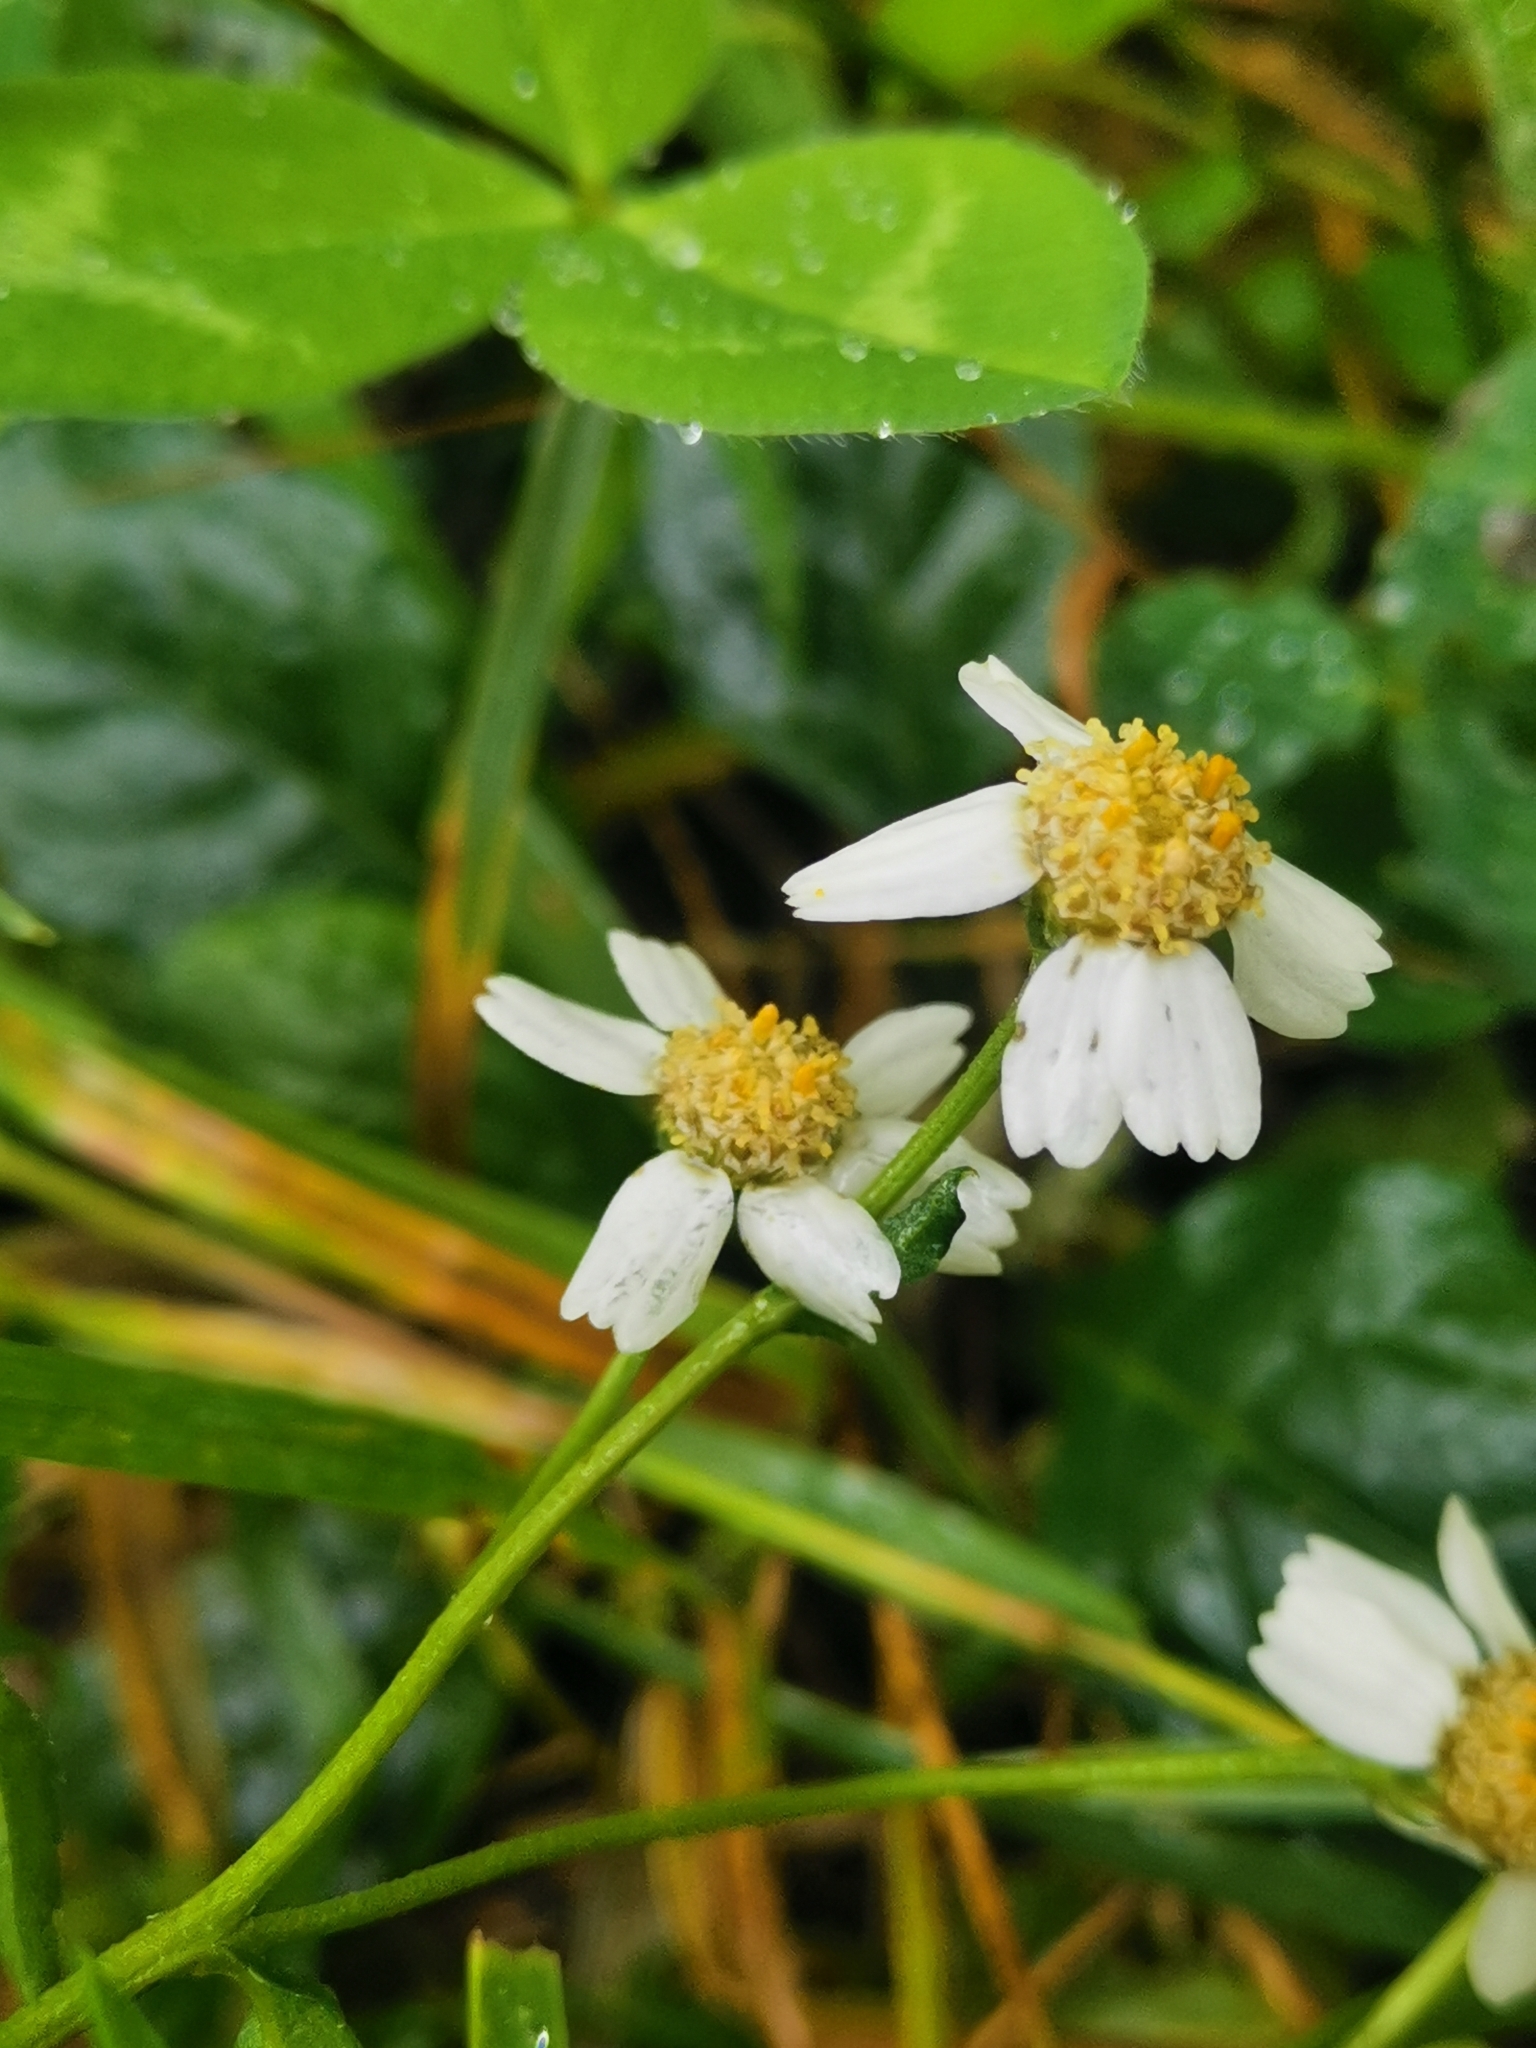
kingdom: Plantae
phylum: Tracheophyta
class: Magnoliopsida
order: Asterales
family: Asteraceae
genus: Achillea
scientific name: Achillea ptarmica
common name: Sneezeweed
